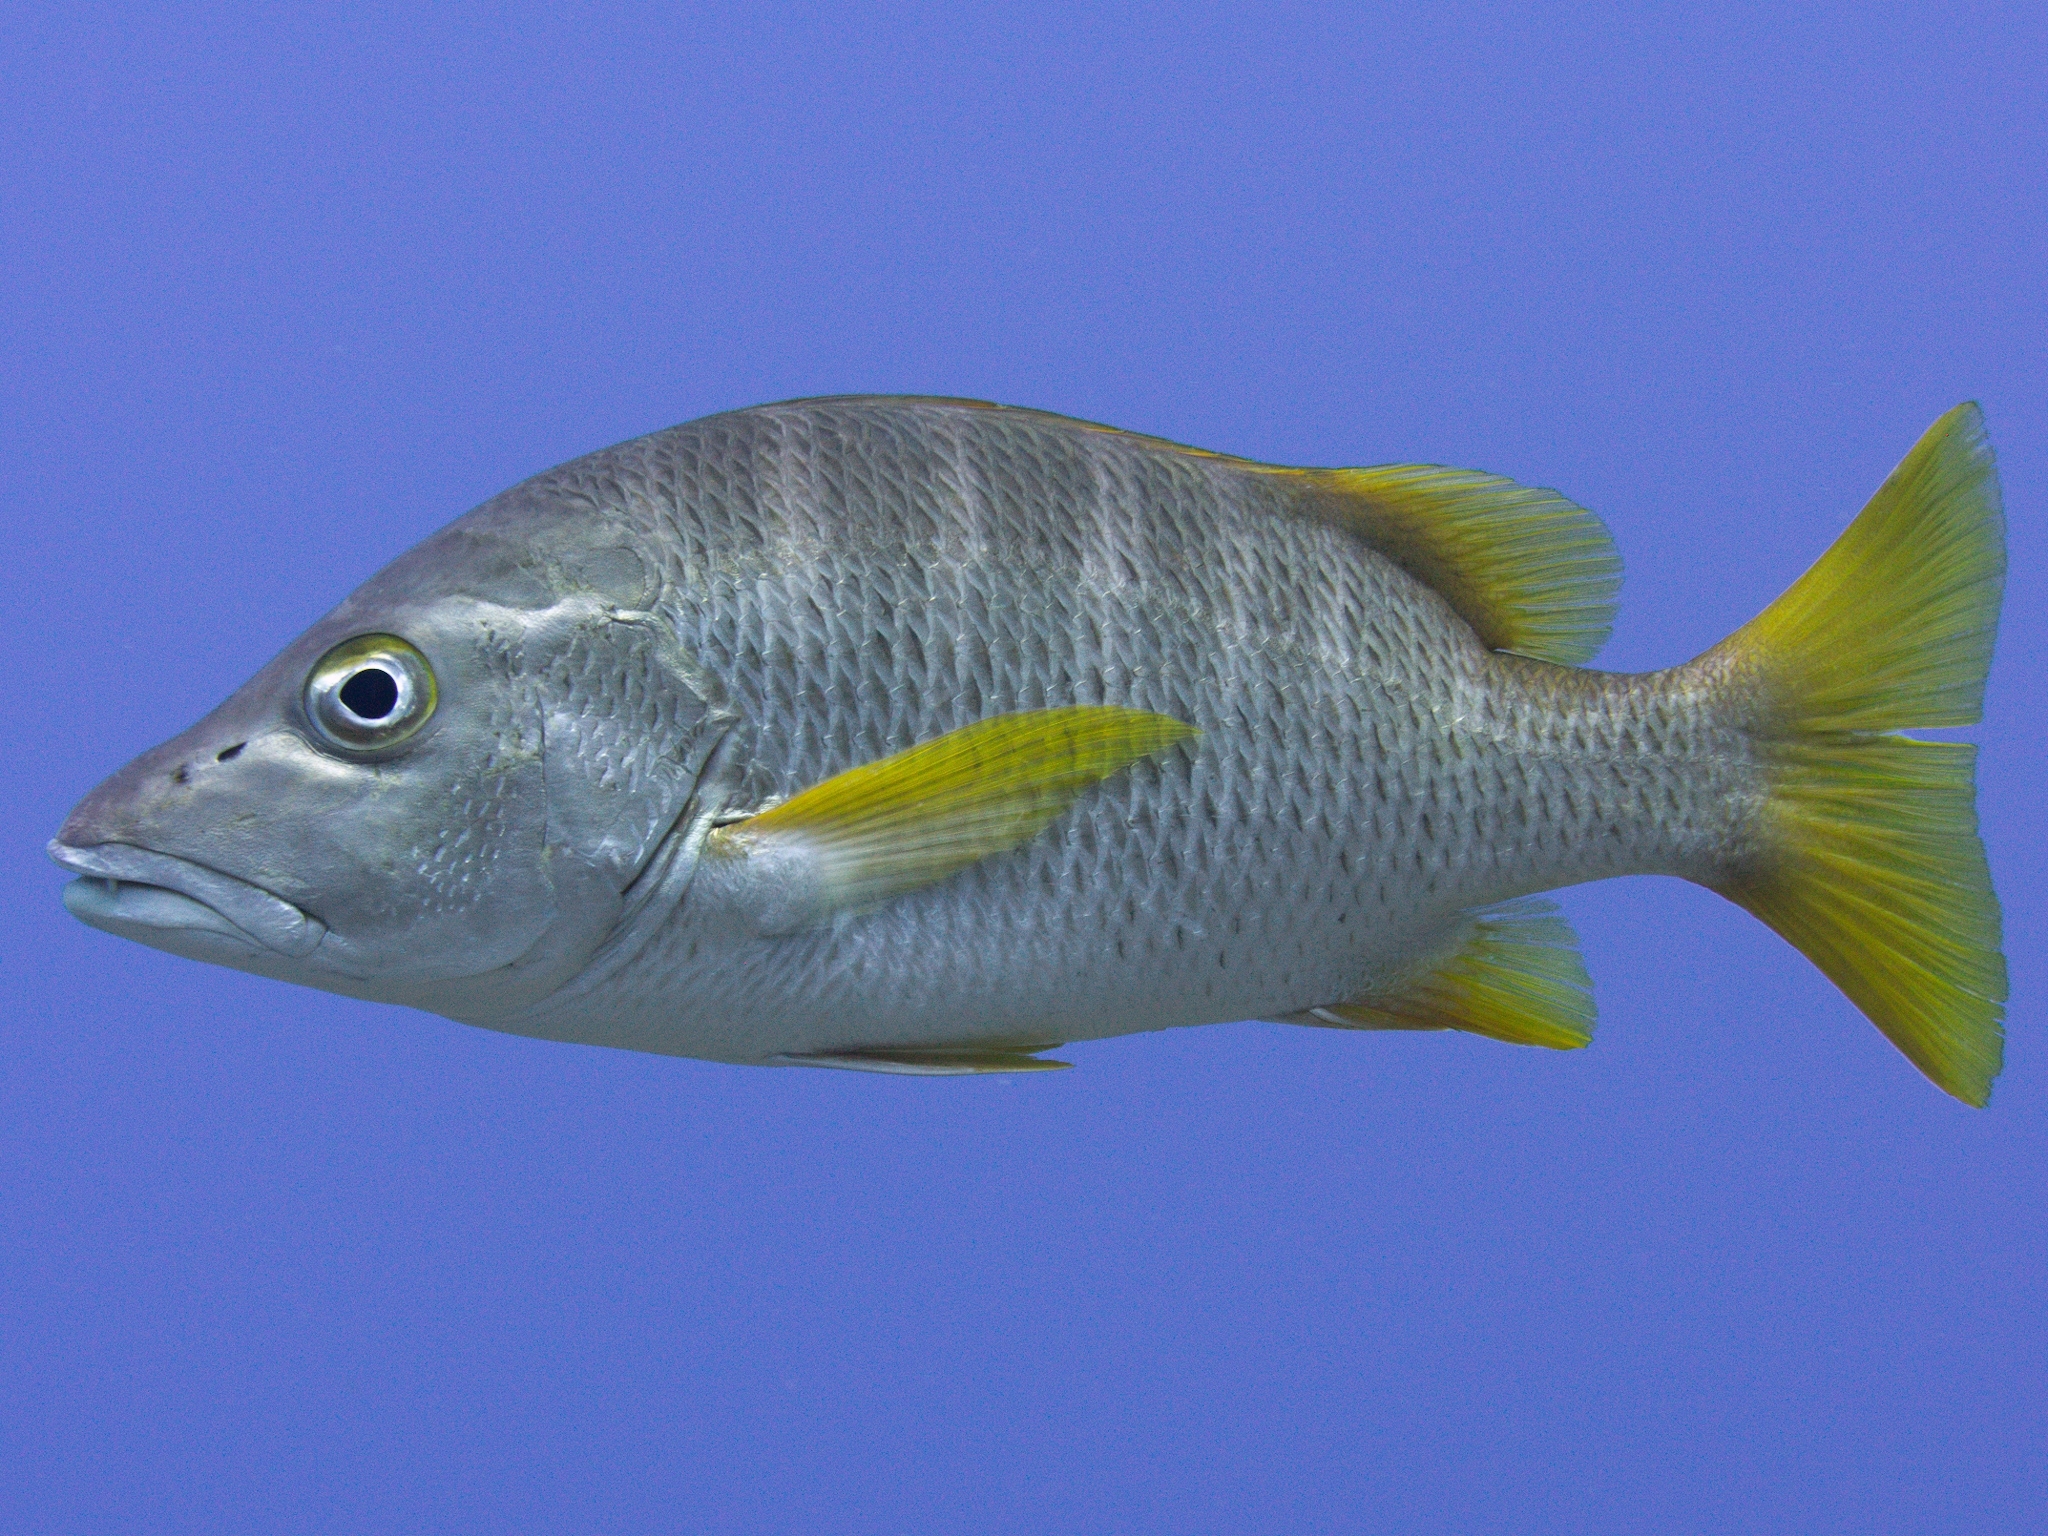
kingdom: Animalia
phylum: Chordata
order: Perciformes
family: Lutjanidae
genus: Lutjanus
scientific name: Lutjanus apodus
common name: Schoolmaster
